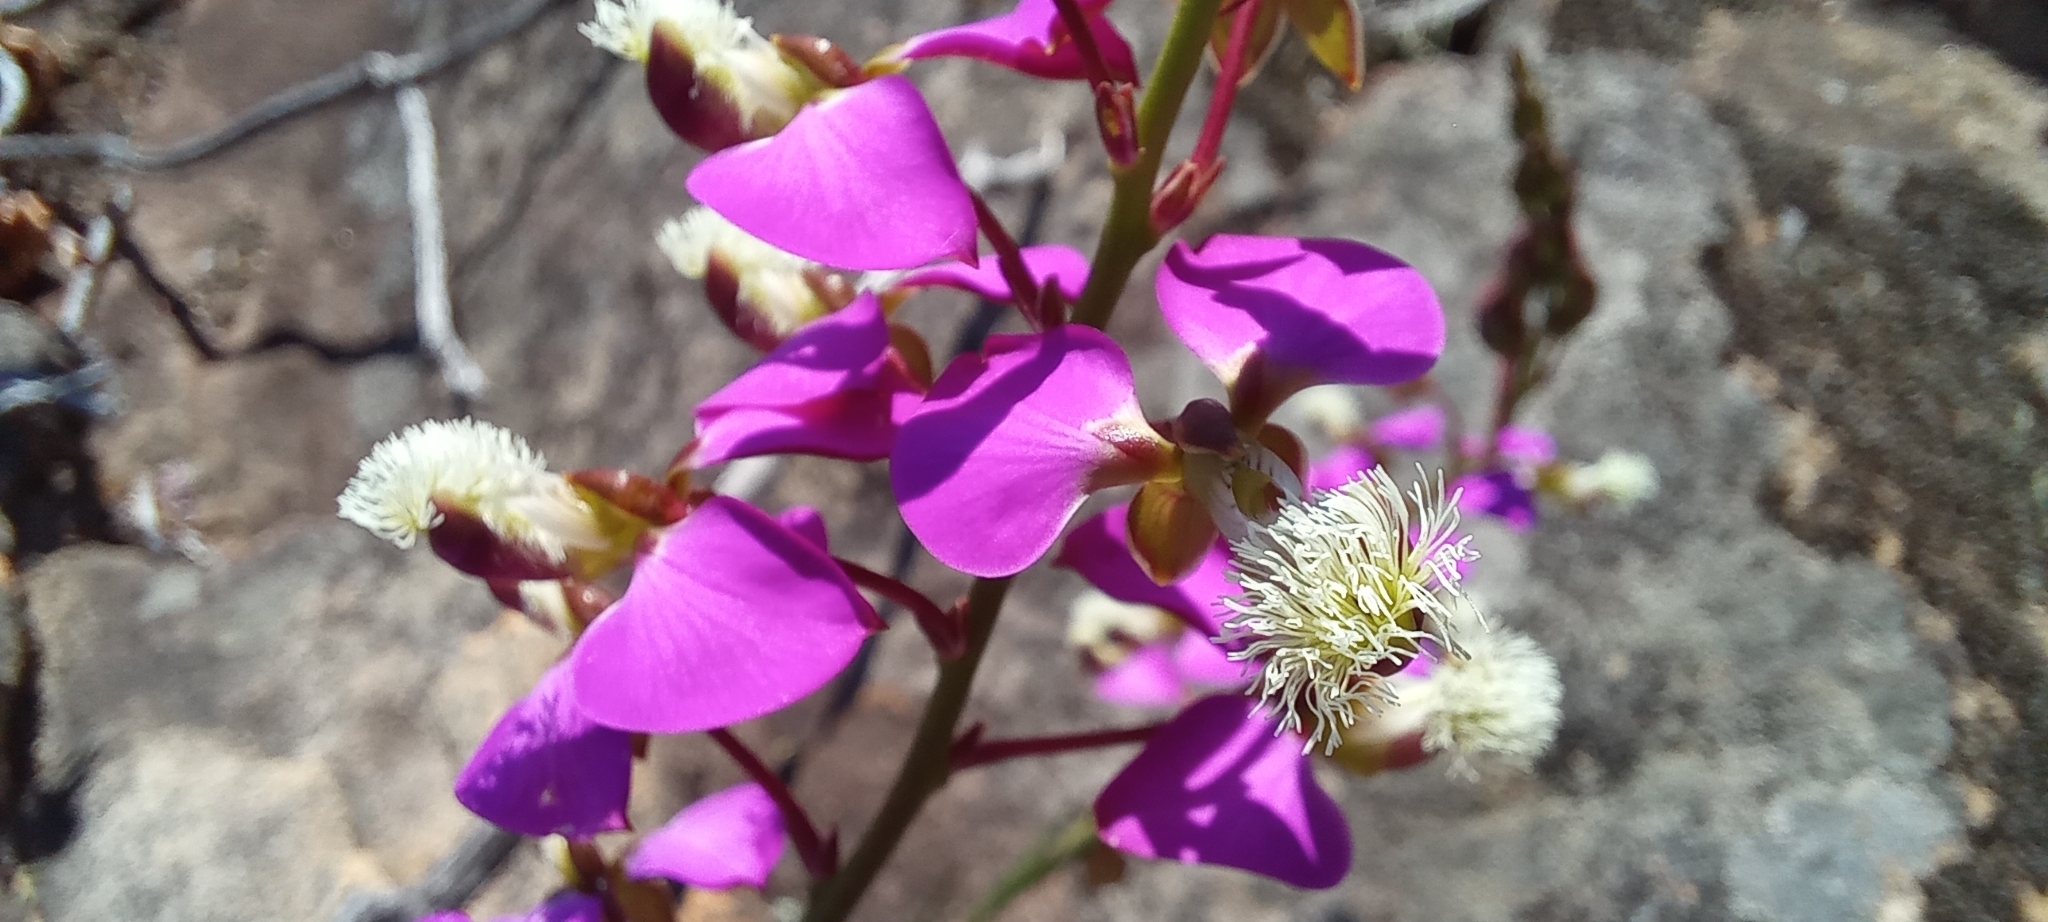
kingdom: Plantae
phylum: Tracheophyta
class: Magnoliopsida
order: Fabales
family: Polygalaceae
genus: Polygala
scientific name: Polygala bracteolata
